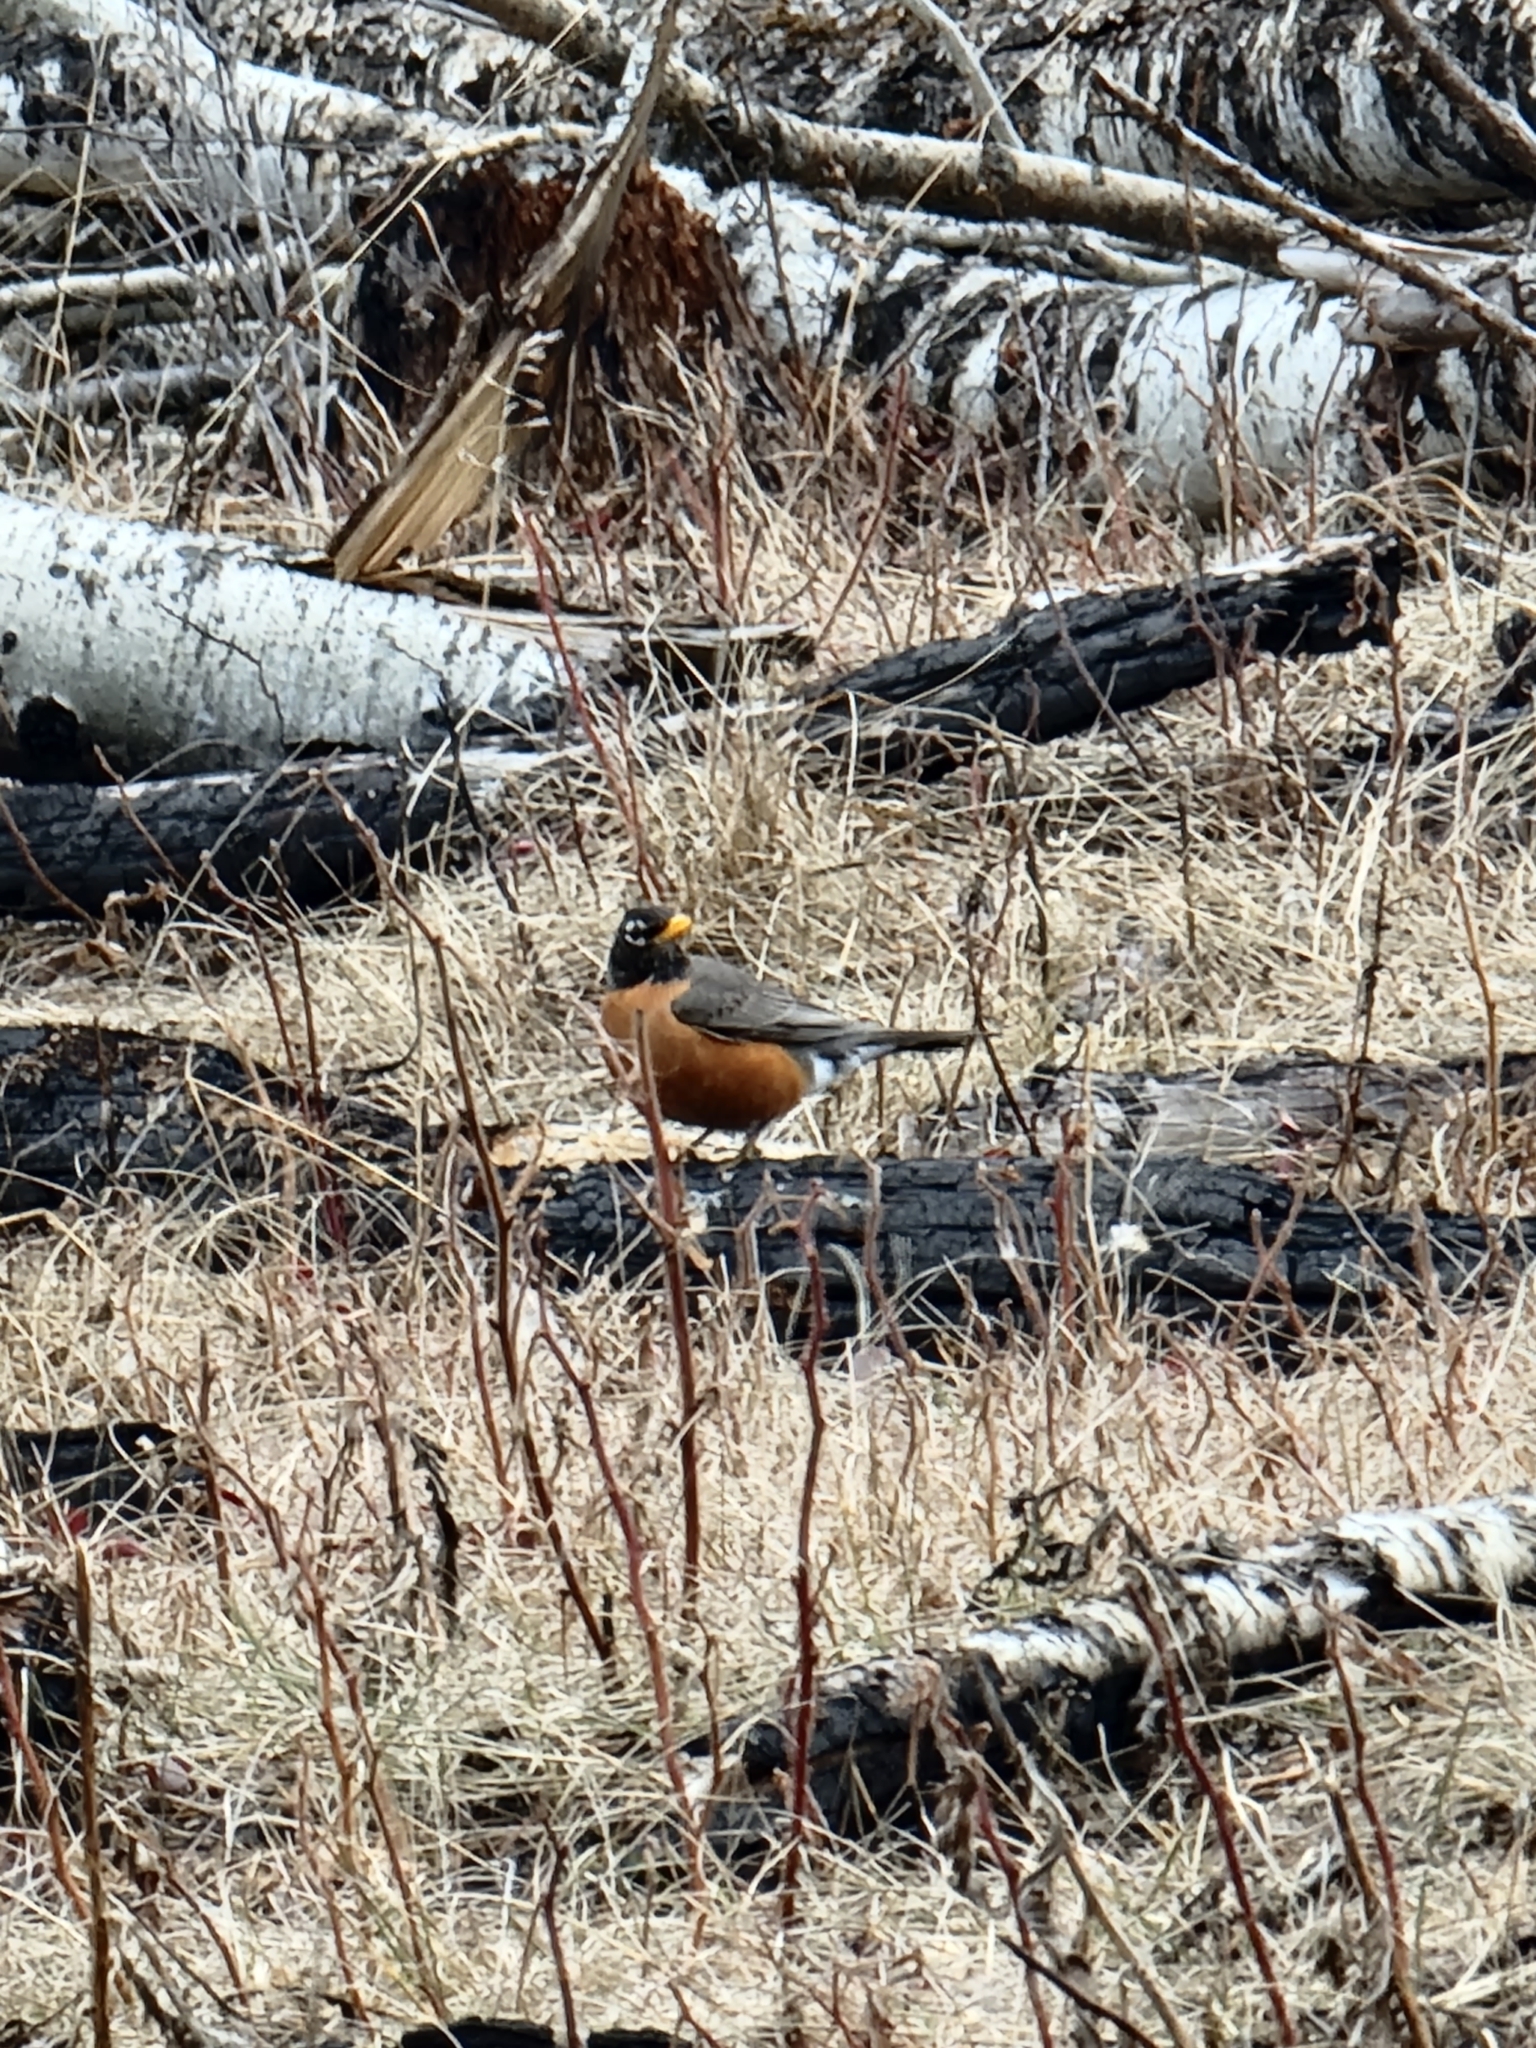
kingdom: Animalia
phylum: Chordata
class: Aves
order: Passeriformes
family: Turdidae
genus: Turdus
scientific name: Turdus migratorius
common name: American robin
